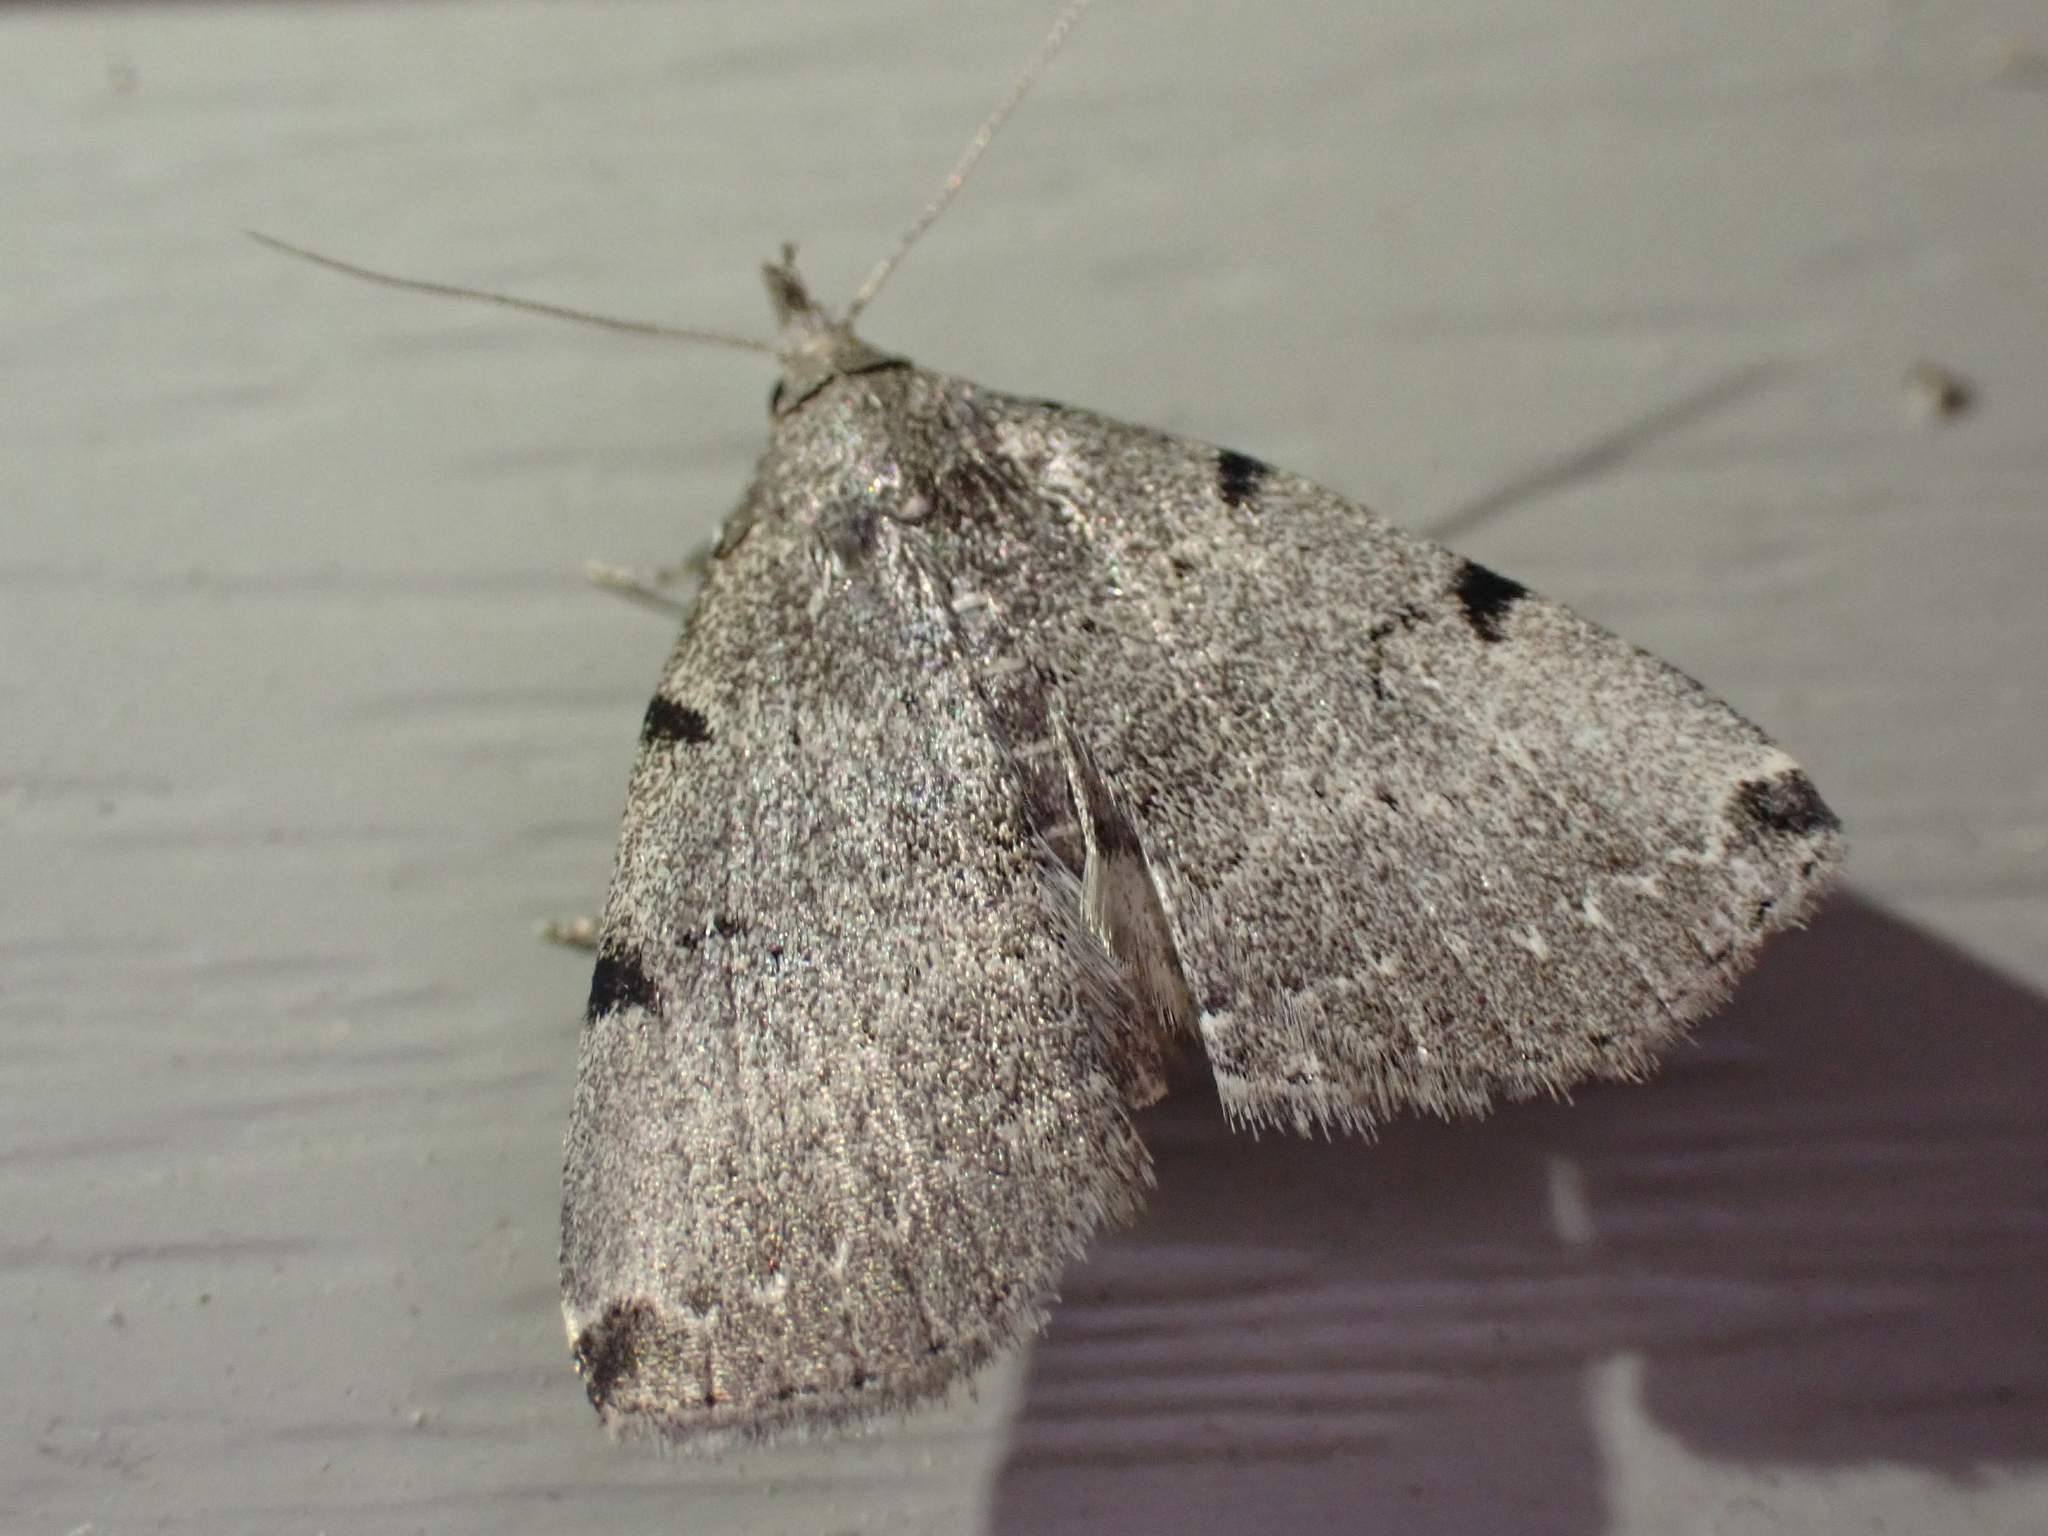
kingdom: Animalia
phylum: Arthropoda
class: Insecta
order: Lepidoptera
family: Erebidae
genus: Zanclognatha
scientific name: Zanclognatha lituralis
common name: Lettered fan-foot
